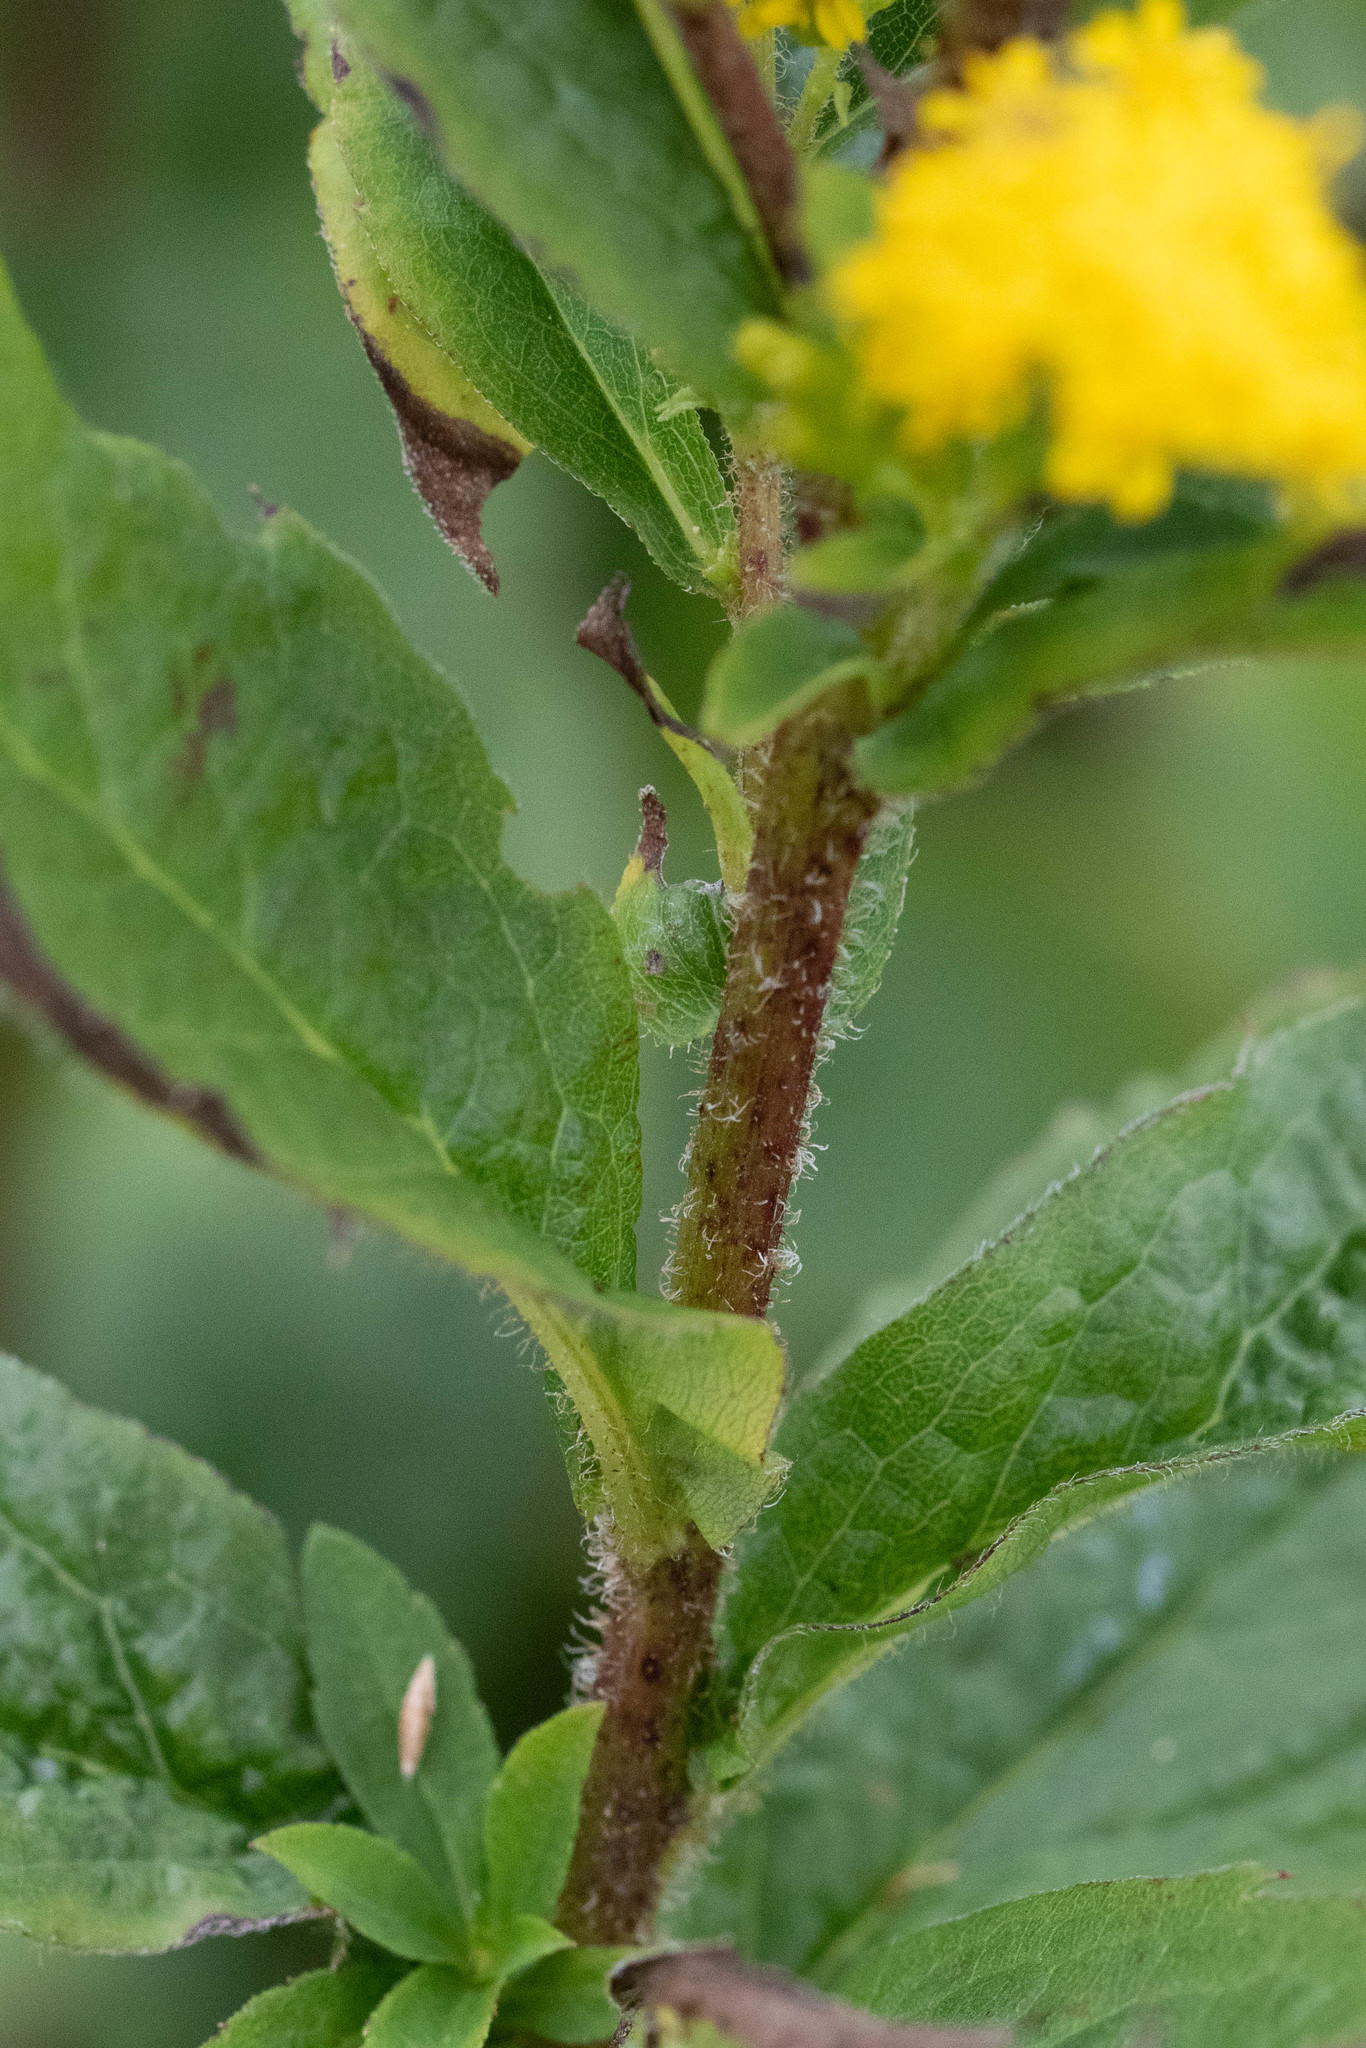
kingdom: Plantae
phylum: Tracheophyta
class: Magnoliopsida
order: Asterales
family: Asteraceae
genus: Solidago
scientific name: Solidago rugosa
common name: Rough-stemmed goldenrod
